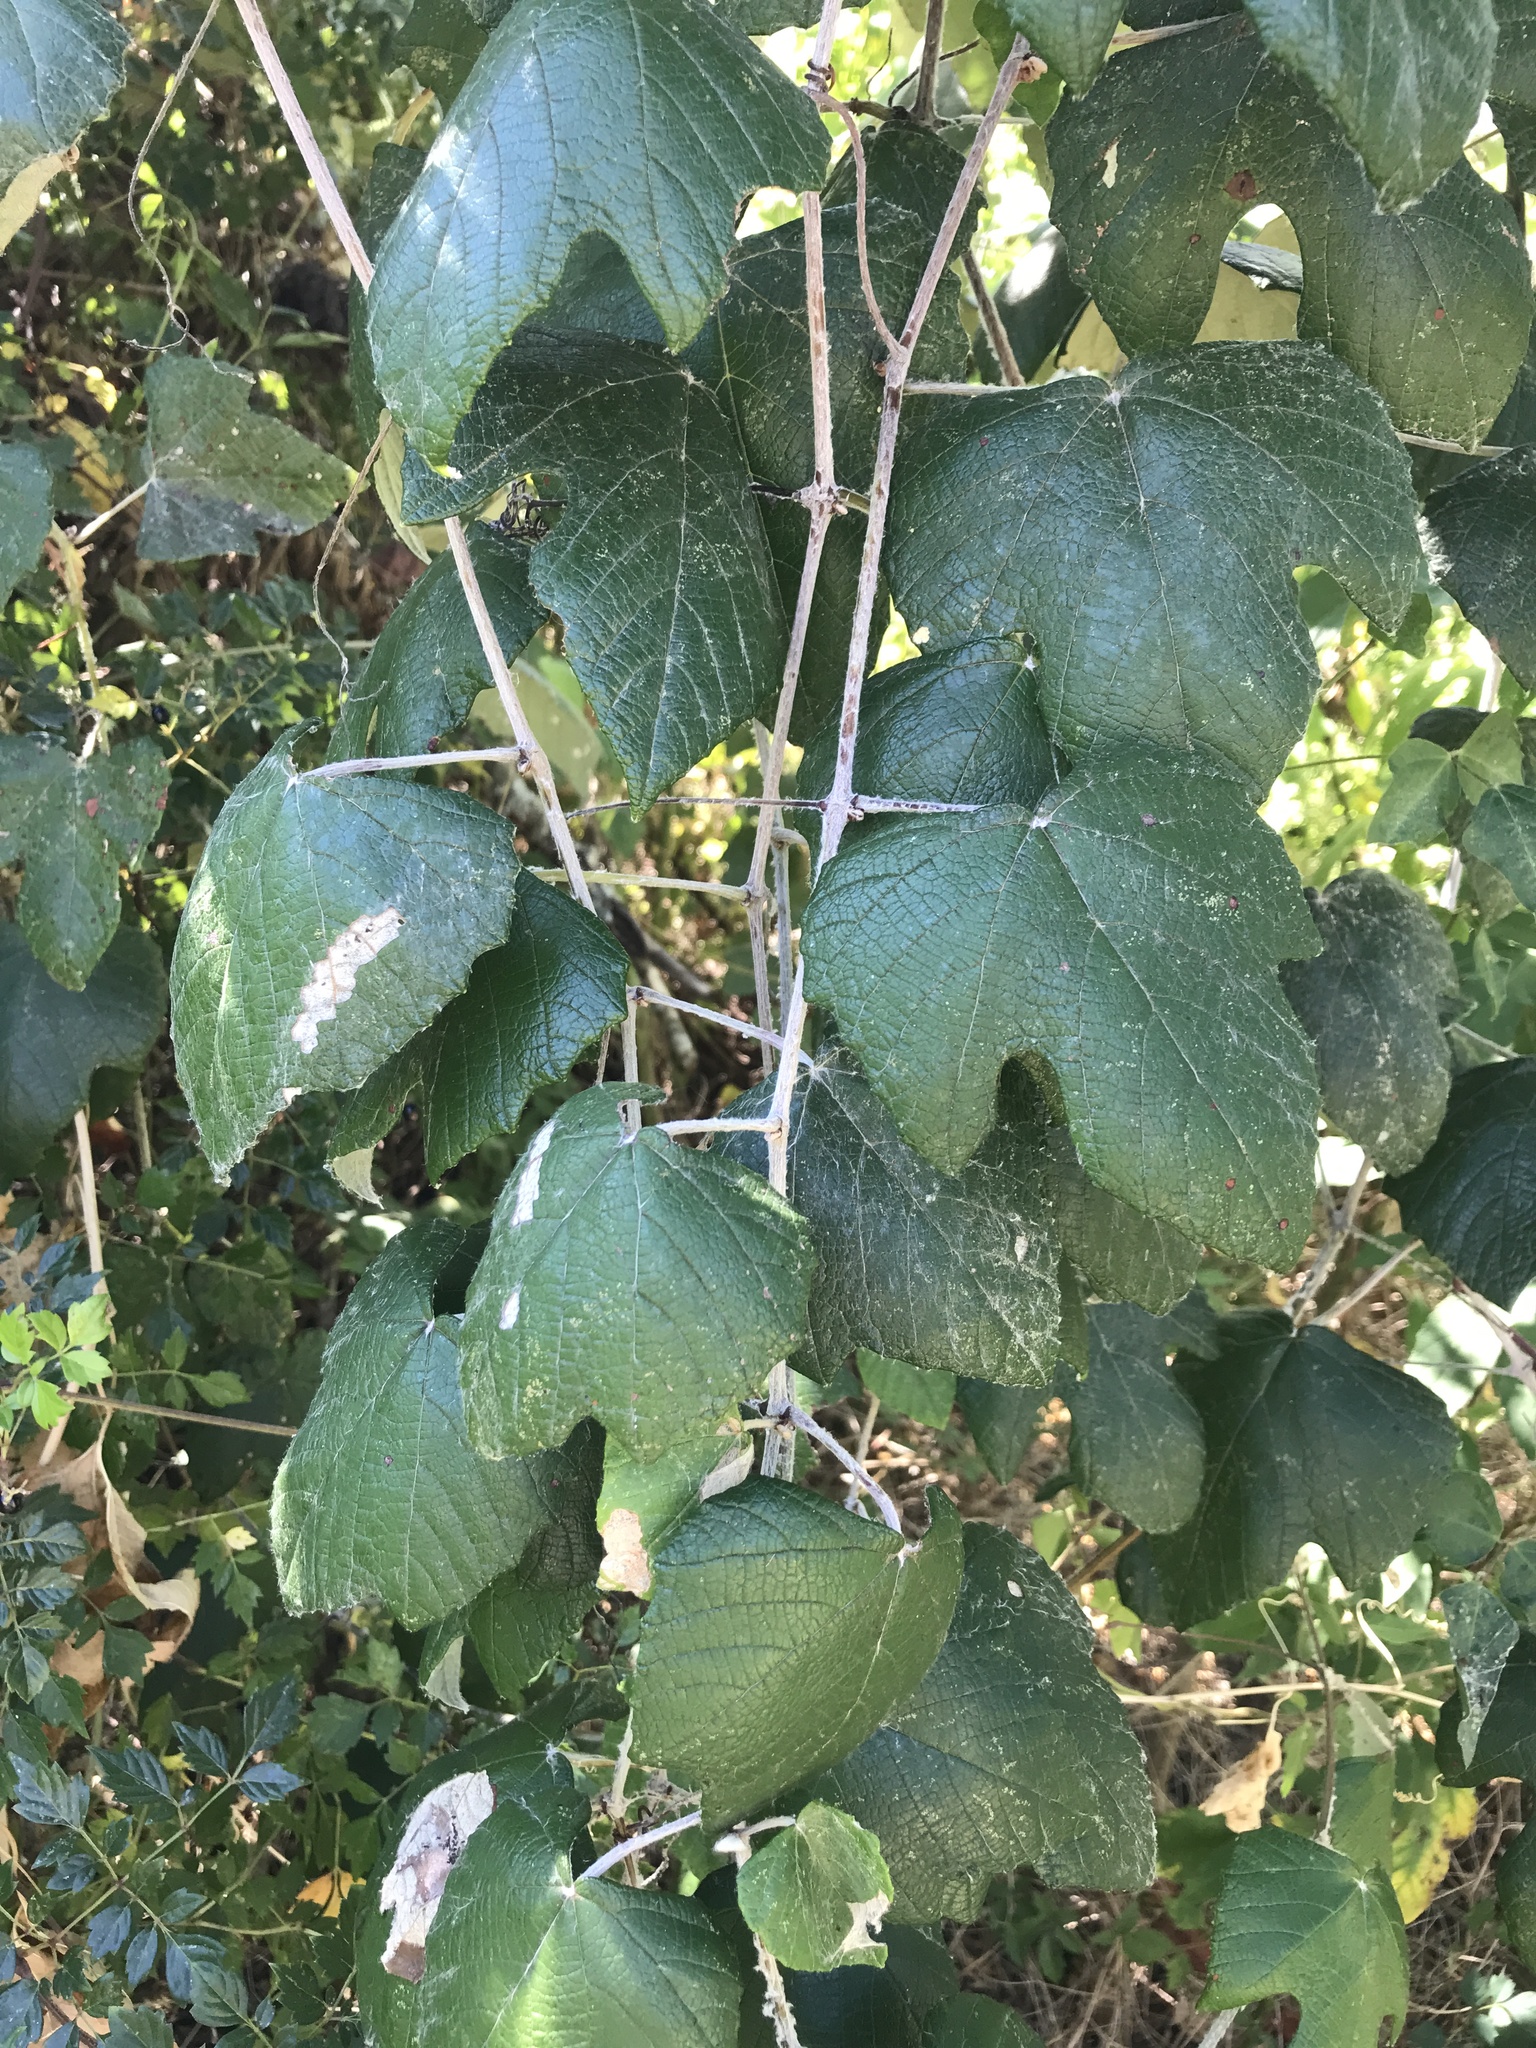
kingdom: Plantae
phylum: Tracheophyta
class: Magnoliopsida
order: Vitales
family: Vitaceae
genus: Vitis
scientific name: Vitis mustangensis
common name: Mustang grape
